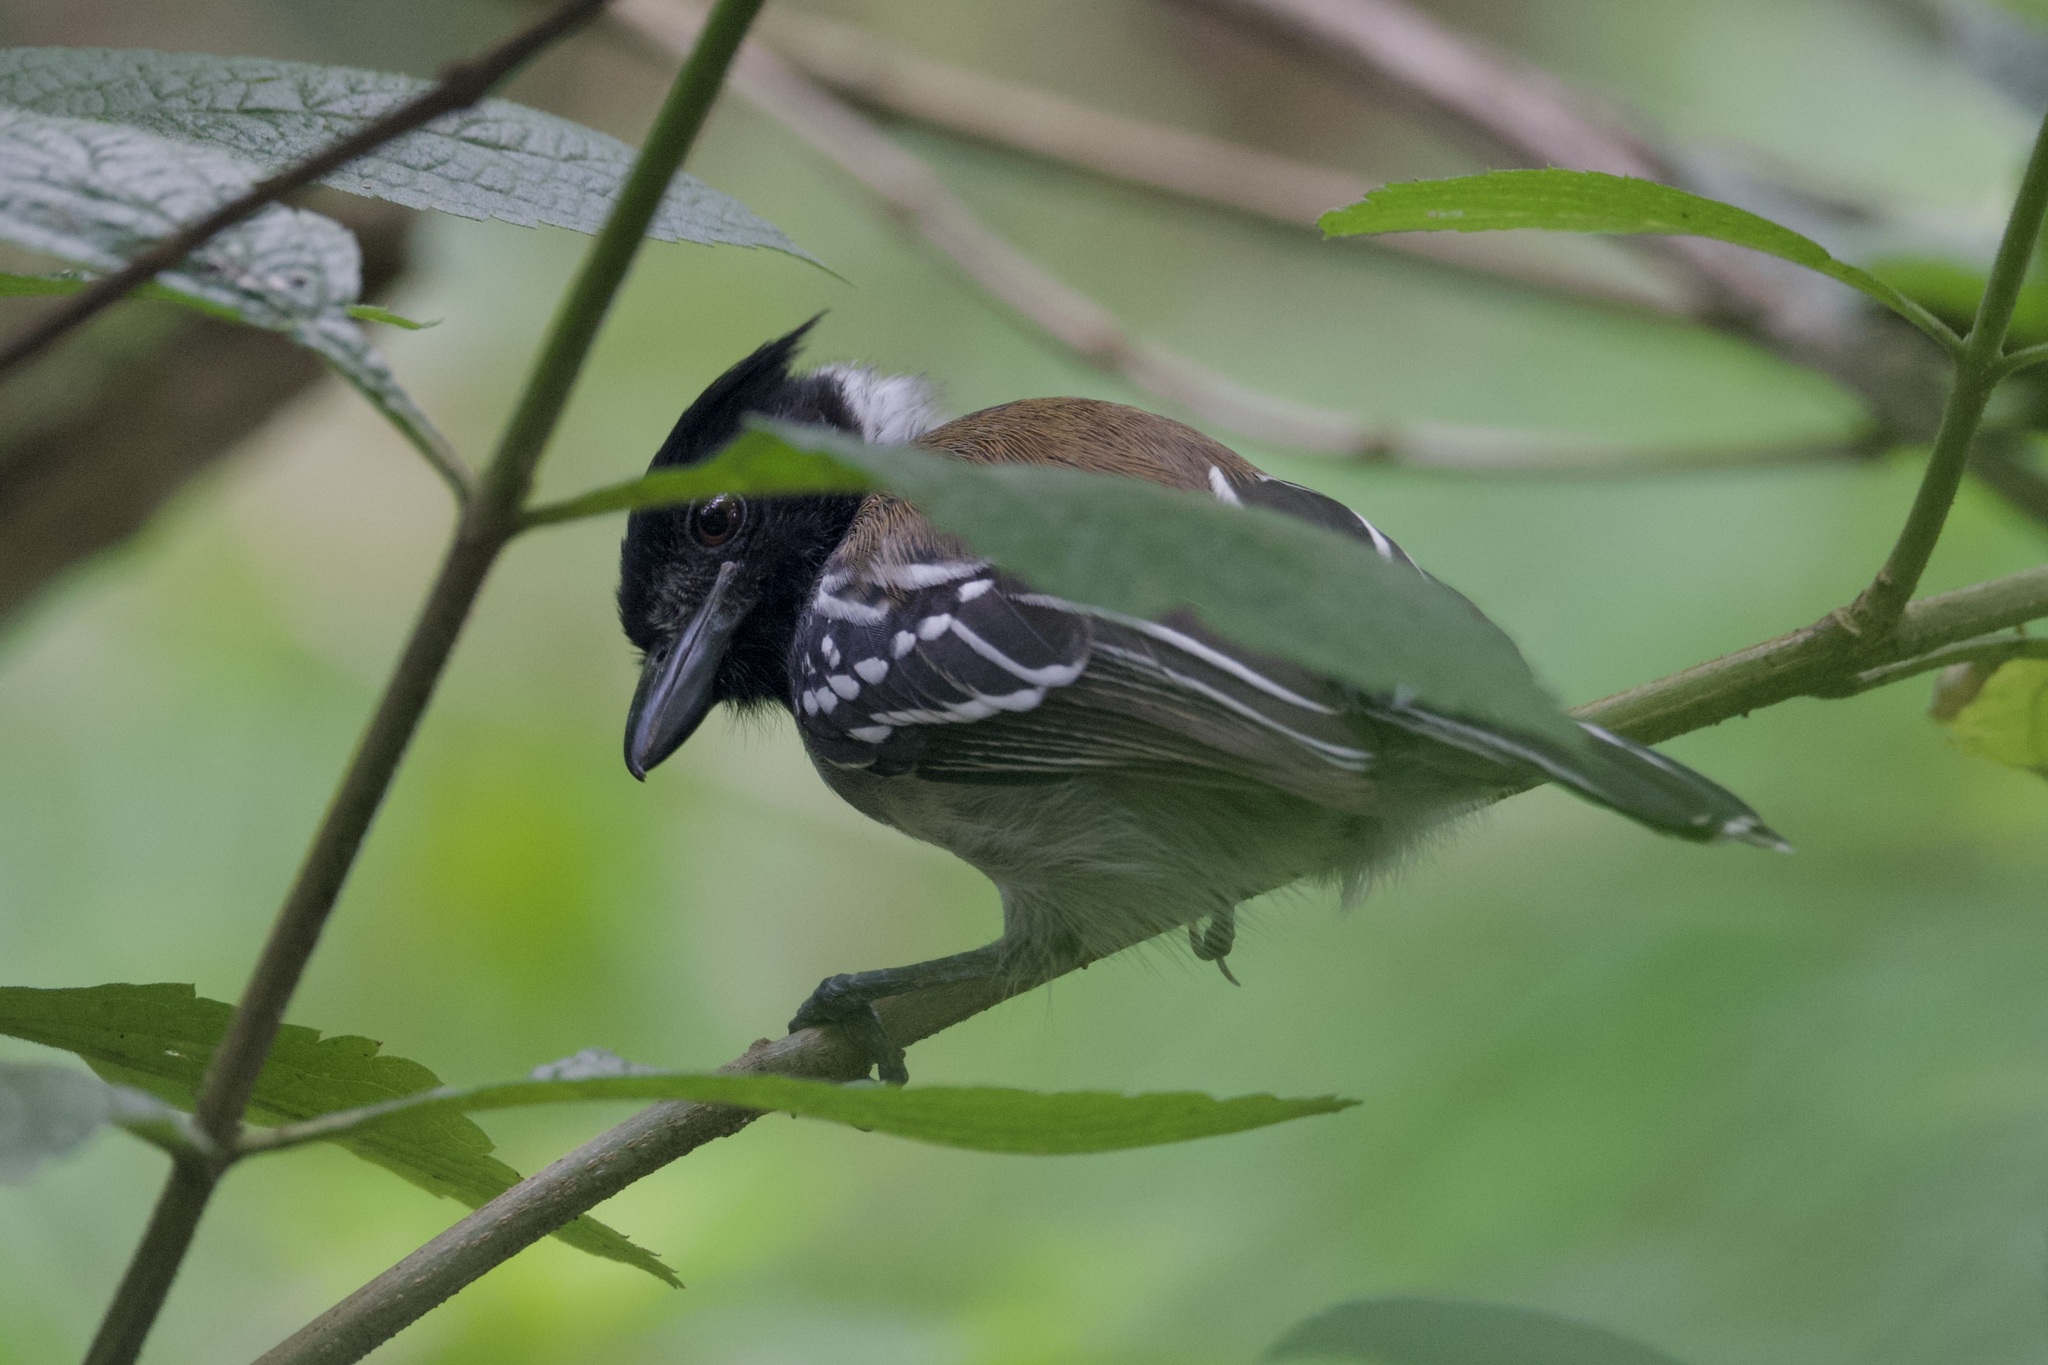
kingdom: Animalia
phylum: Chordata
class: Aves
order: Passeriformes
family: Thamnophilidae
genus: Sakesphorus
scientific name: Sakesphorus canadensis
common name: Black-crested antshrike
